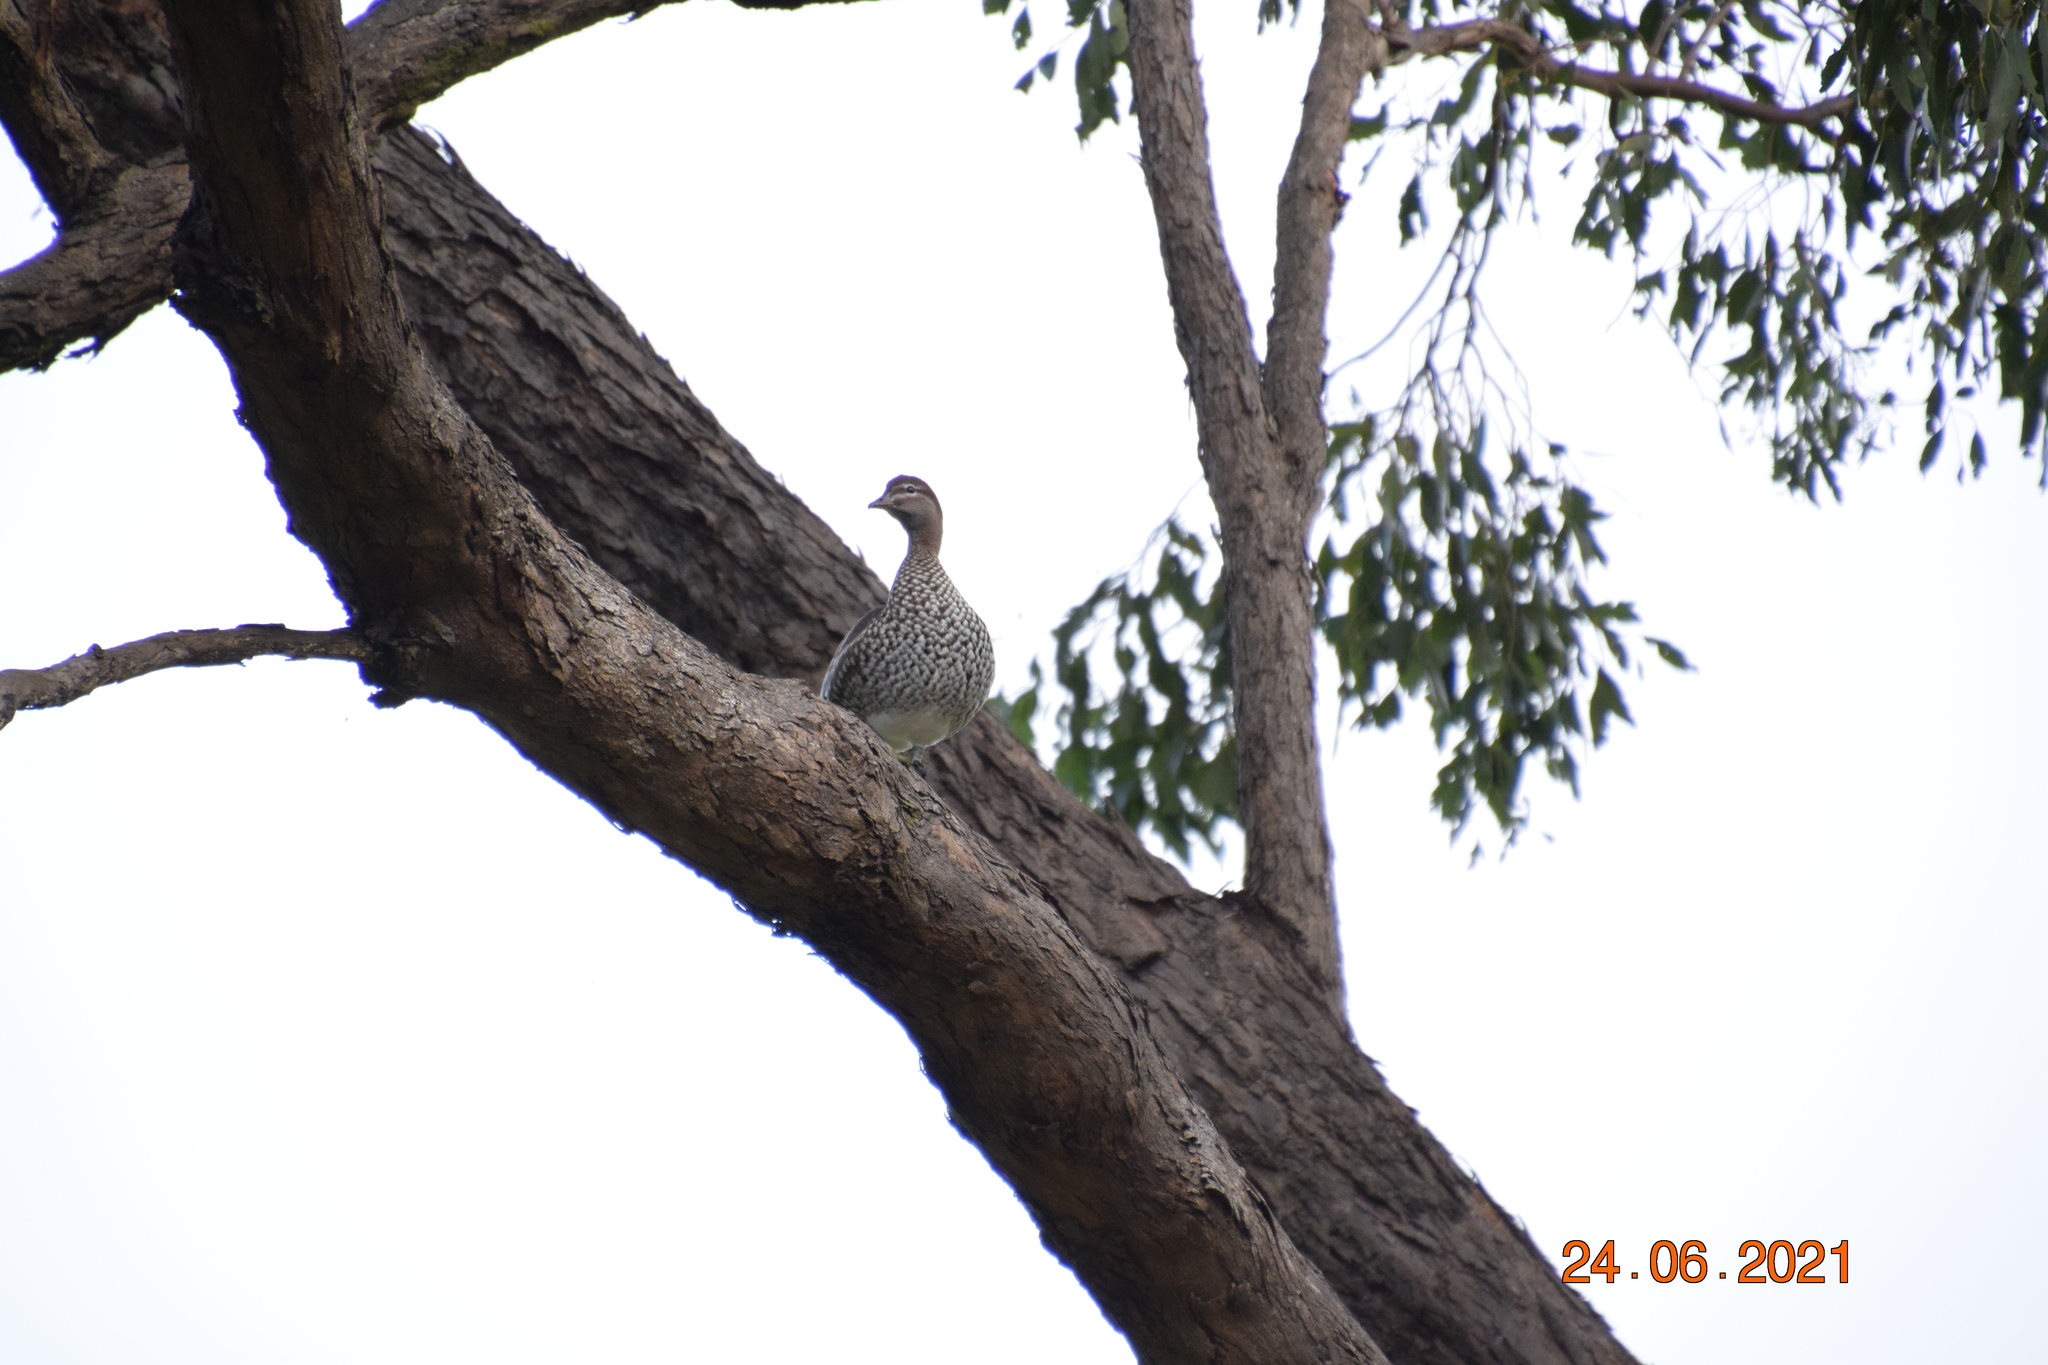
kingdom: Animalia
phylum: Chordata
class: Aves
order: Anseriformes
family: Anatidae
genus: Chenonetta
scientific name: Chenonetta jubata
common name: Maned duck
